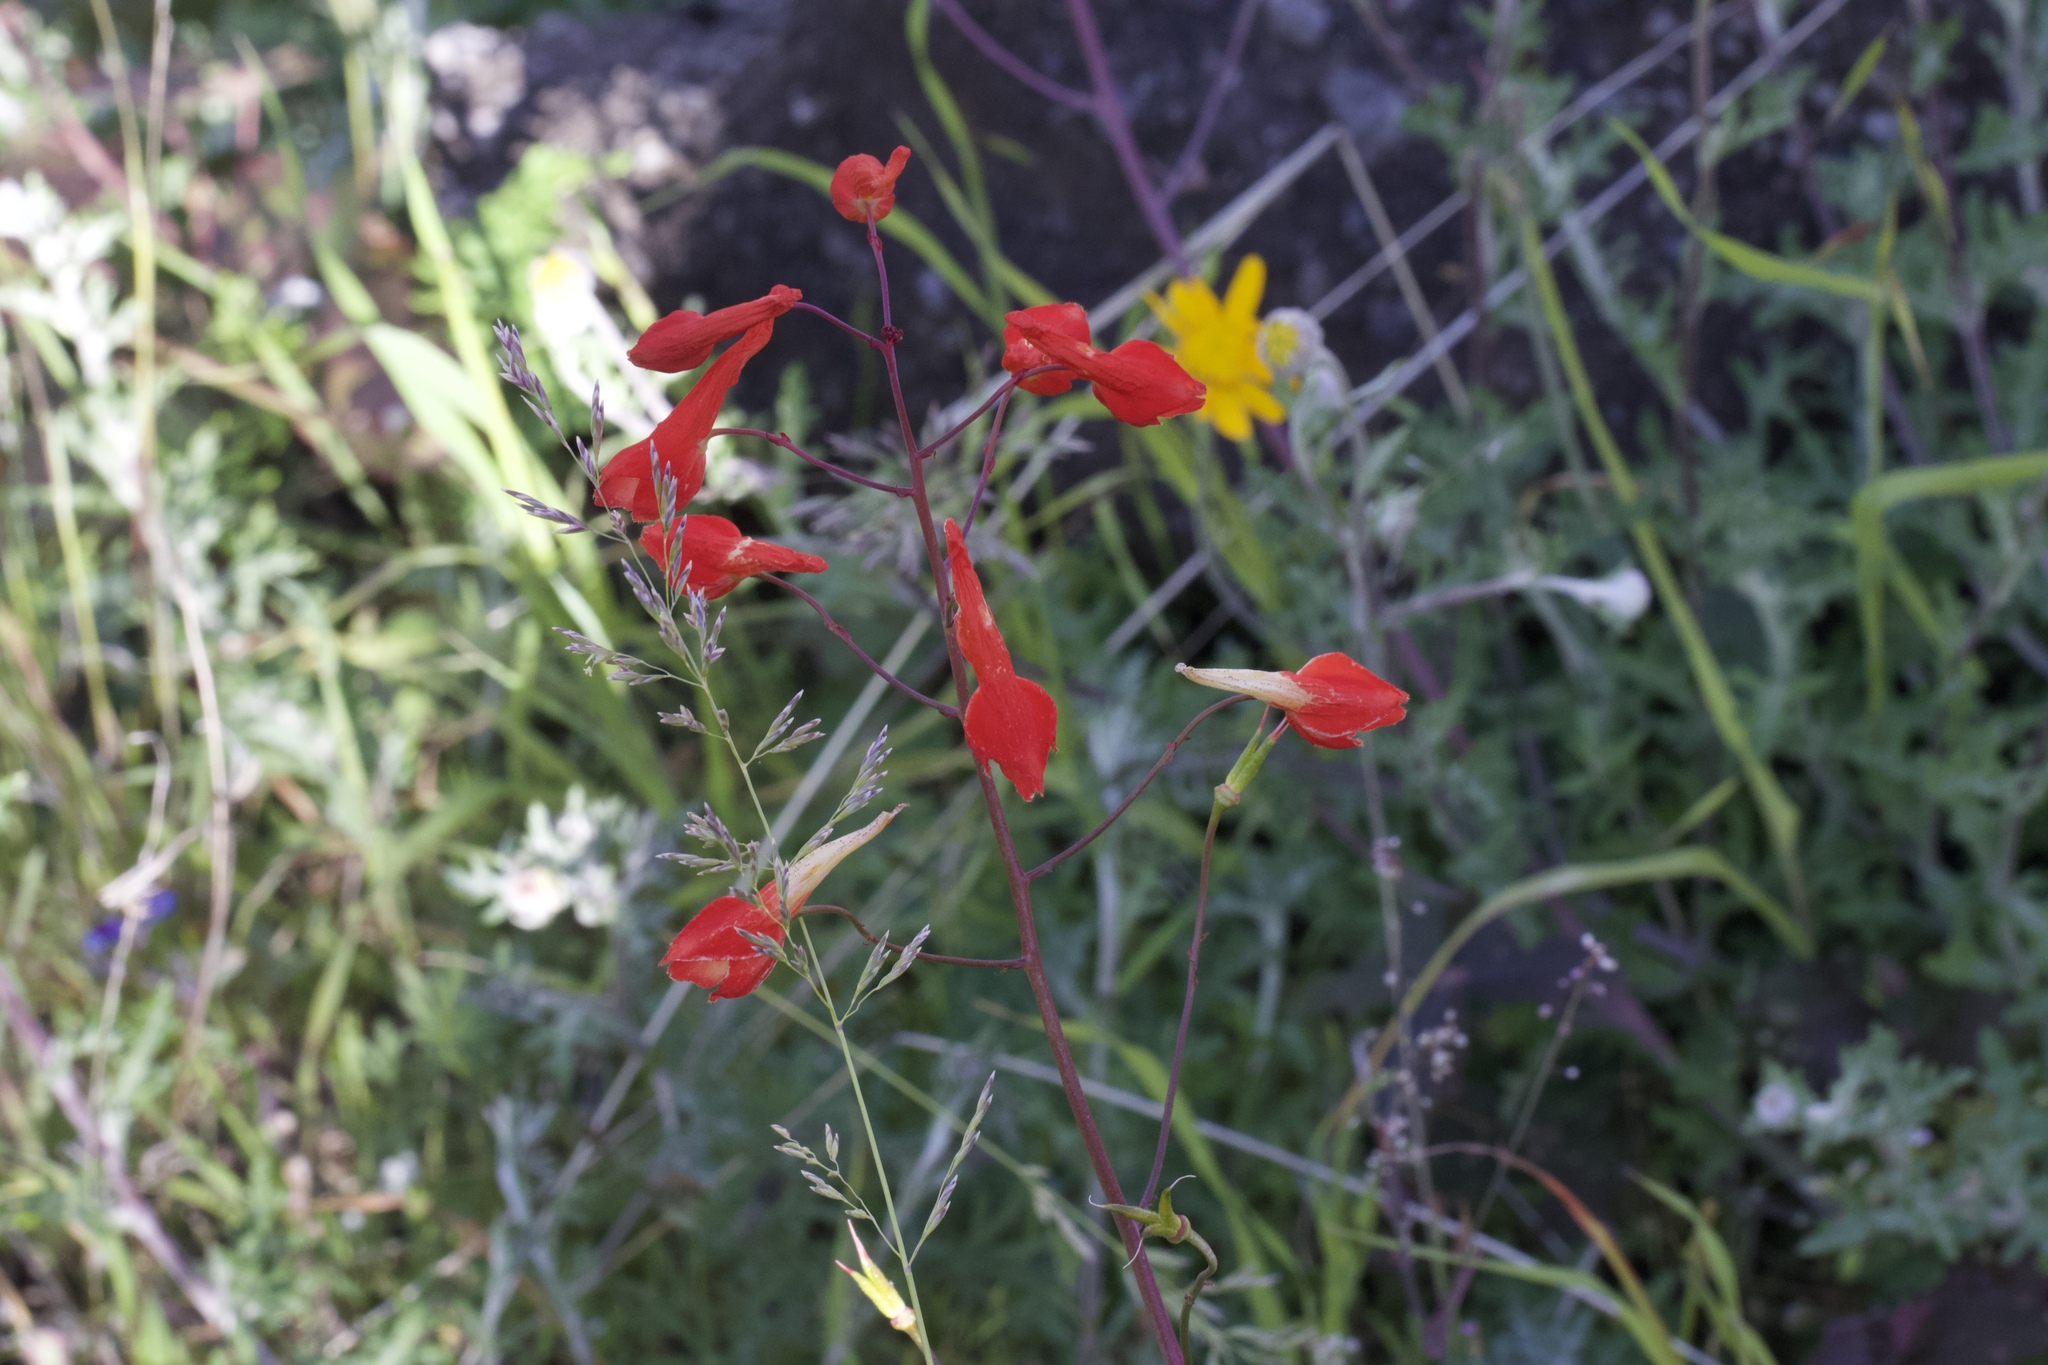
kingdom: Plantae
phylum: Tracheophyta
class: Magnoliopsida
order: Ranunculales
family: Ranunculaceae
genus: Delphinium
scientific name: Delphinium nudicaule
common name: Red larkspur
